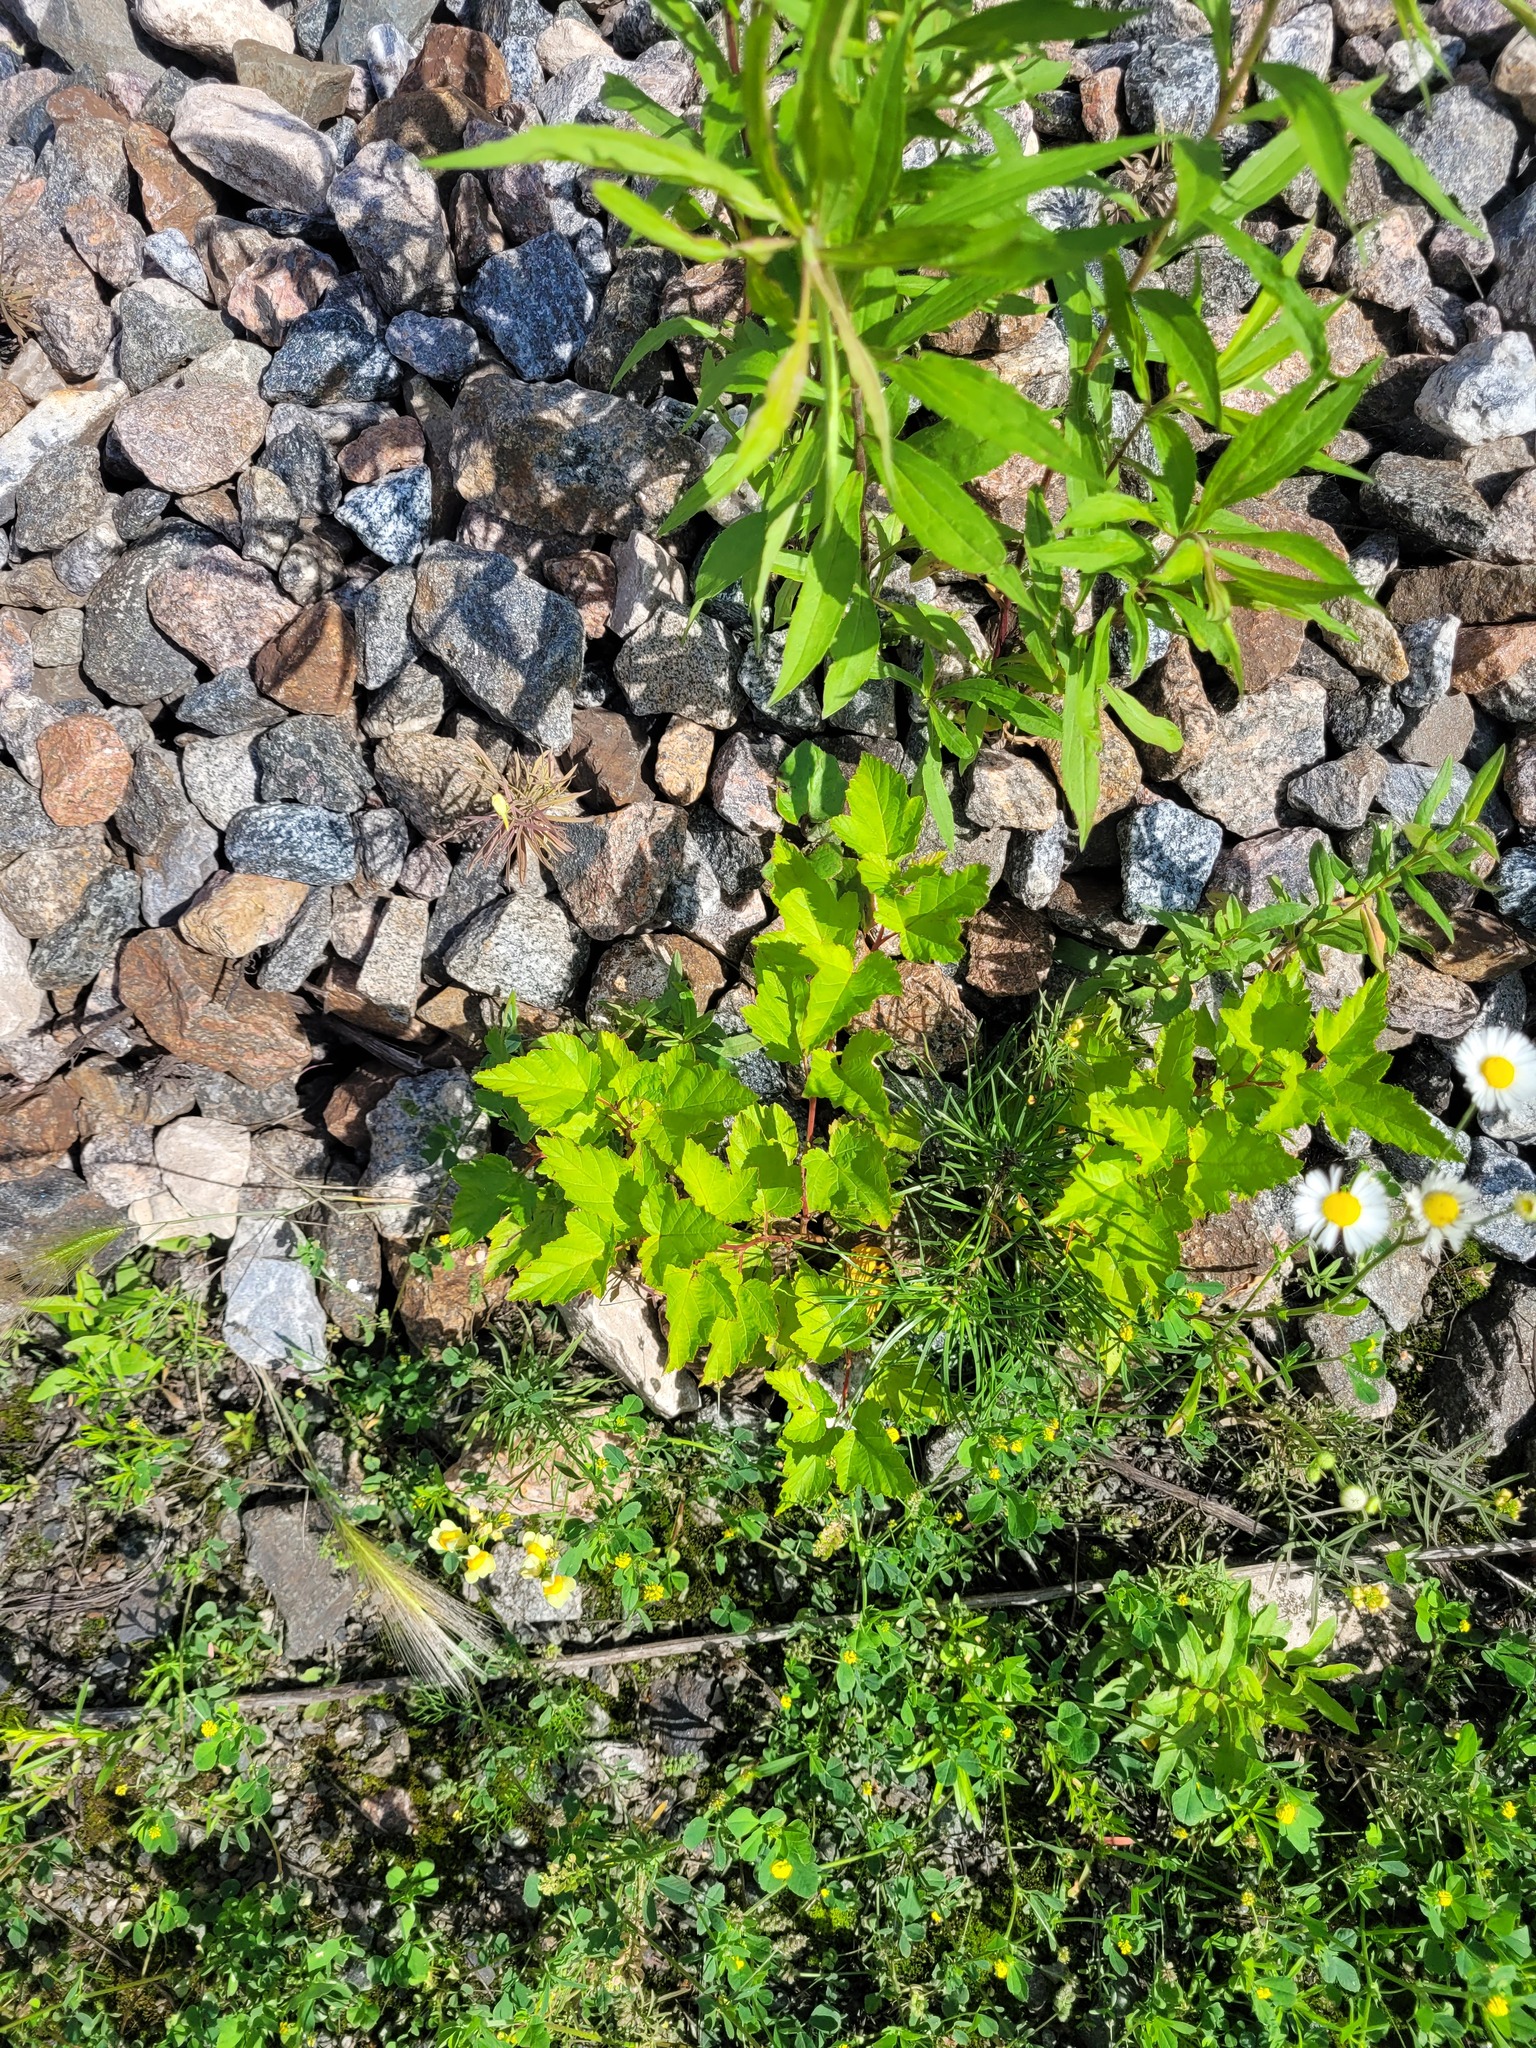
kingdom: Plantae
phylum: Tracheophyta
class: Magnoliopsida
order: Rosales
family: Rosaceae
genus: Physocarpus
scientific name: Physocarpus opulifolius
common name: Ninebark
